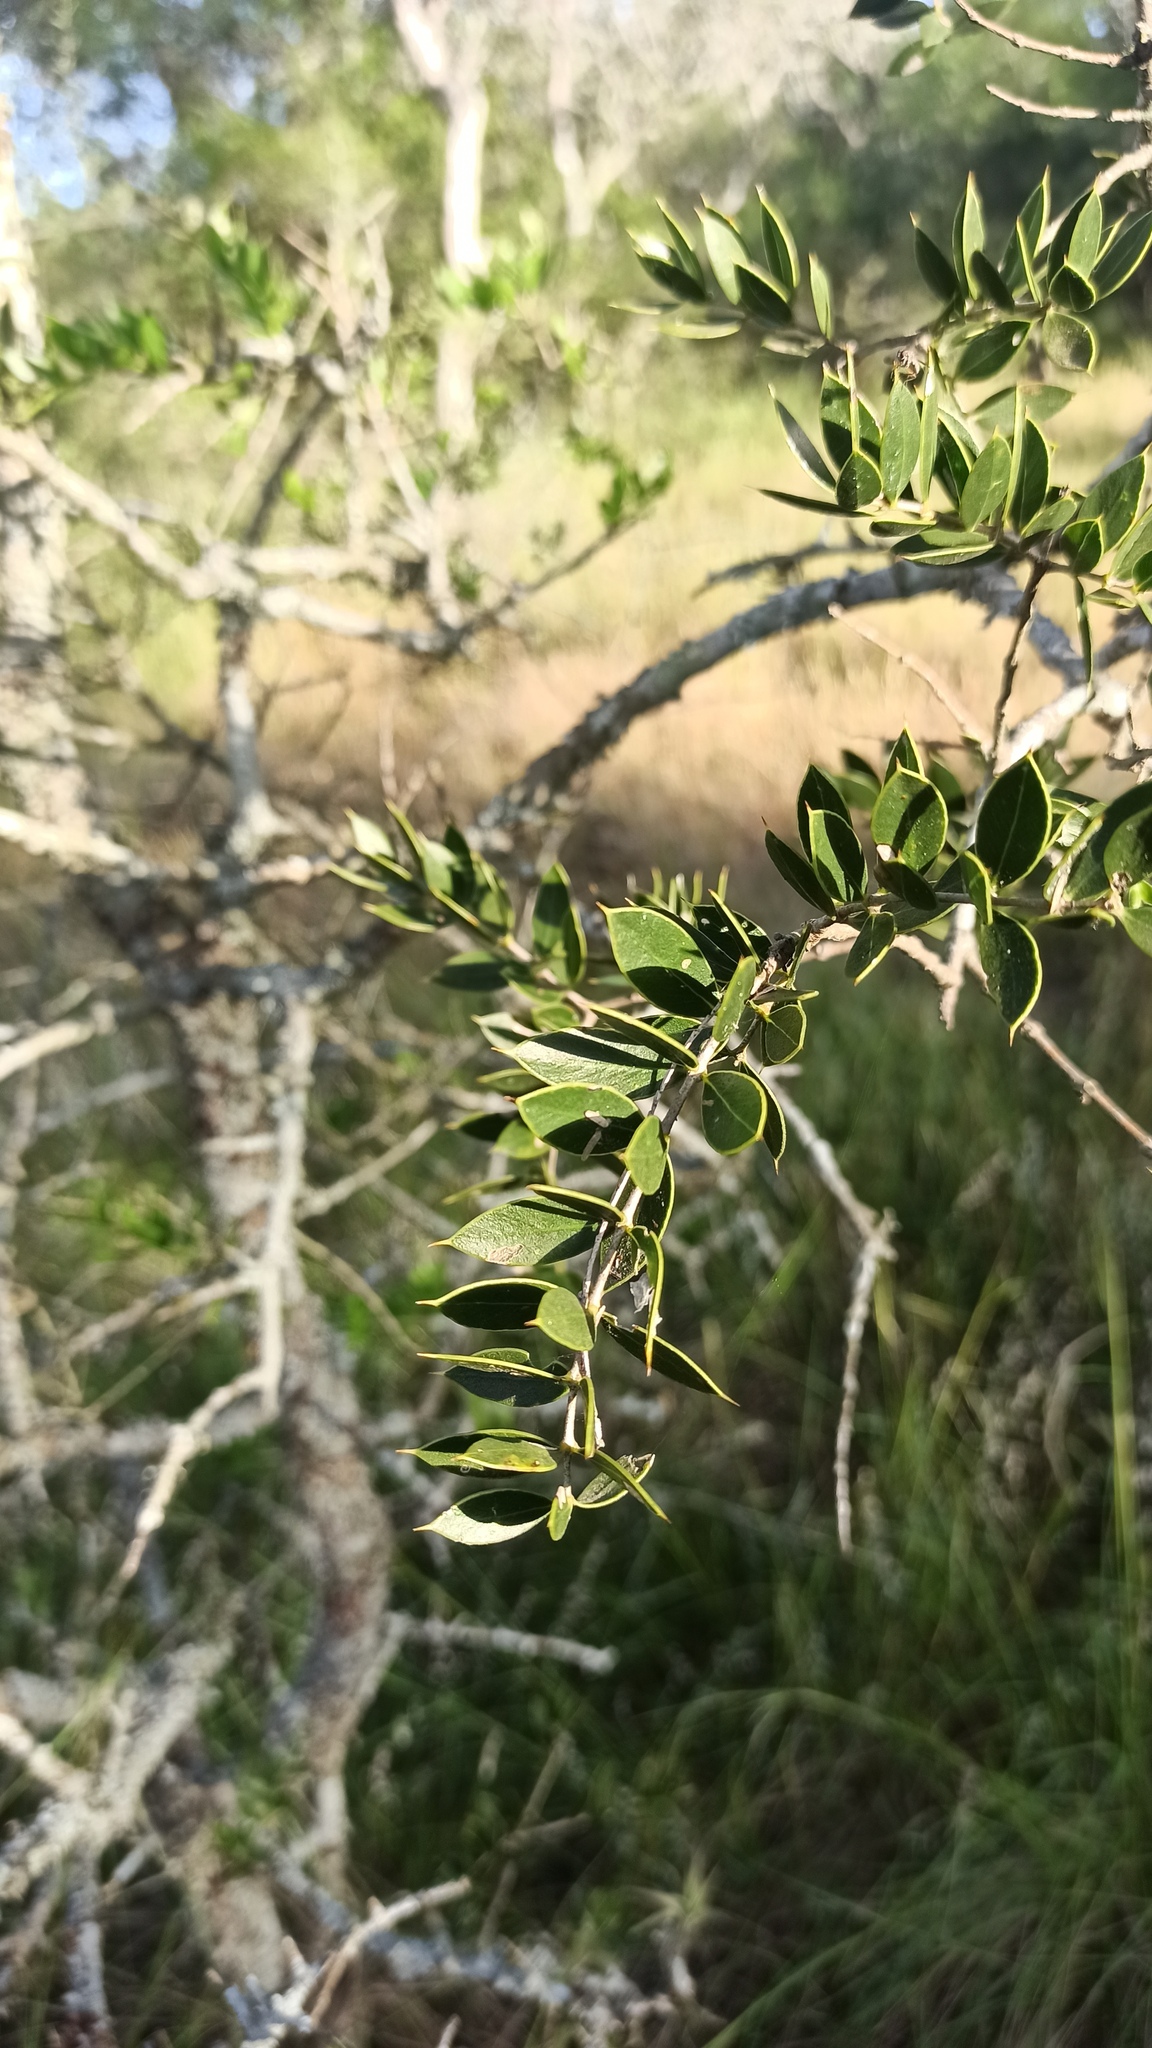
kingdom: Plantae
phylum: Tracheophyta
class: Magnoliopsida
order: Gentianales
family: Apocynaceae
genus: Aspidosperma
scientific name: Aspidosperma quebracho-blanco
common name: White quebracho
